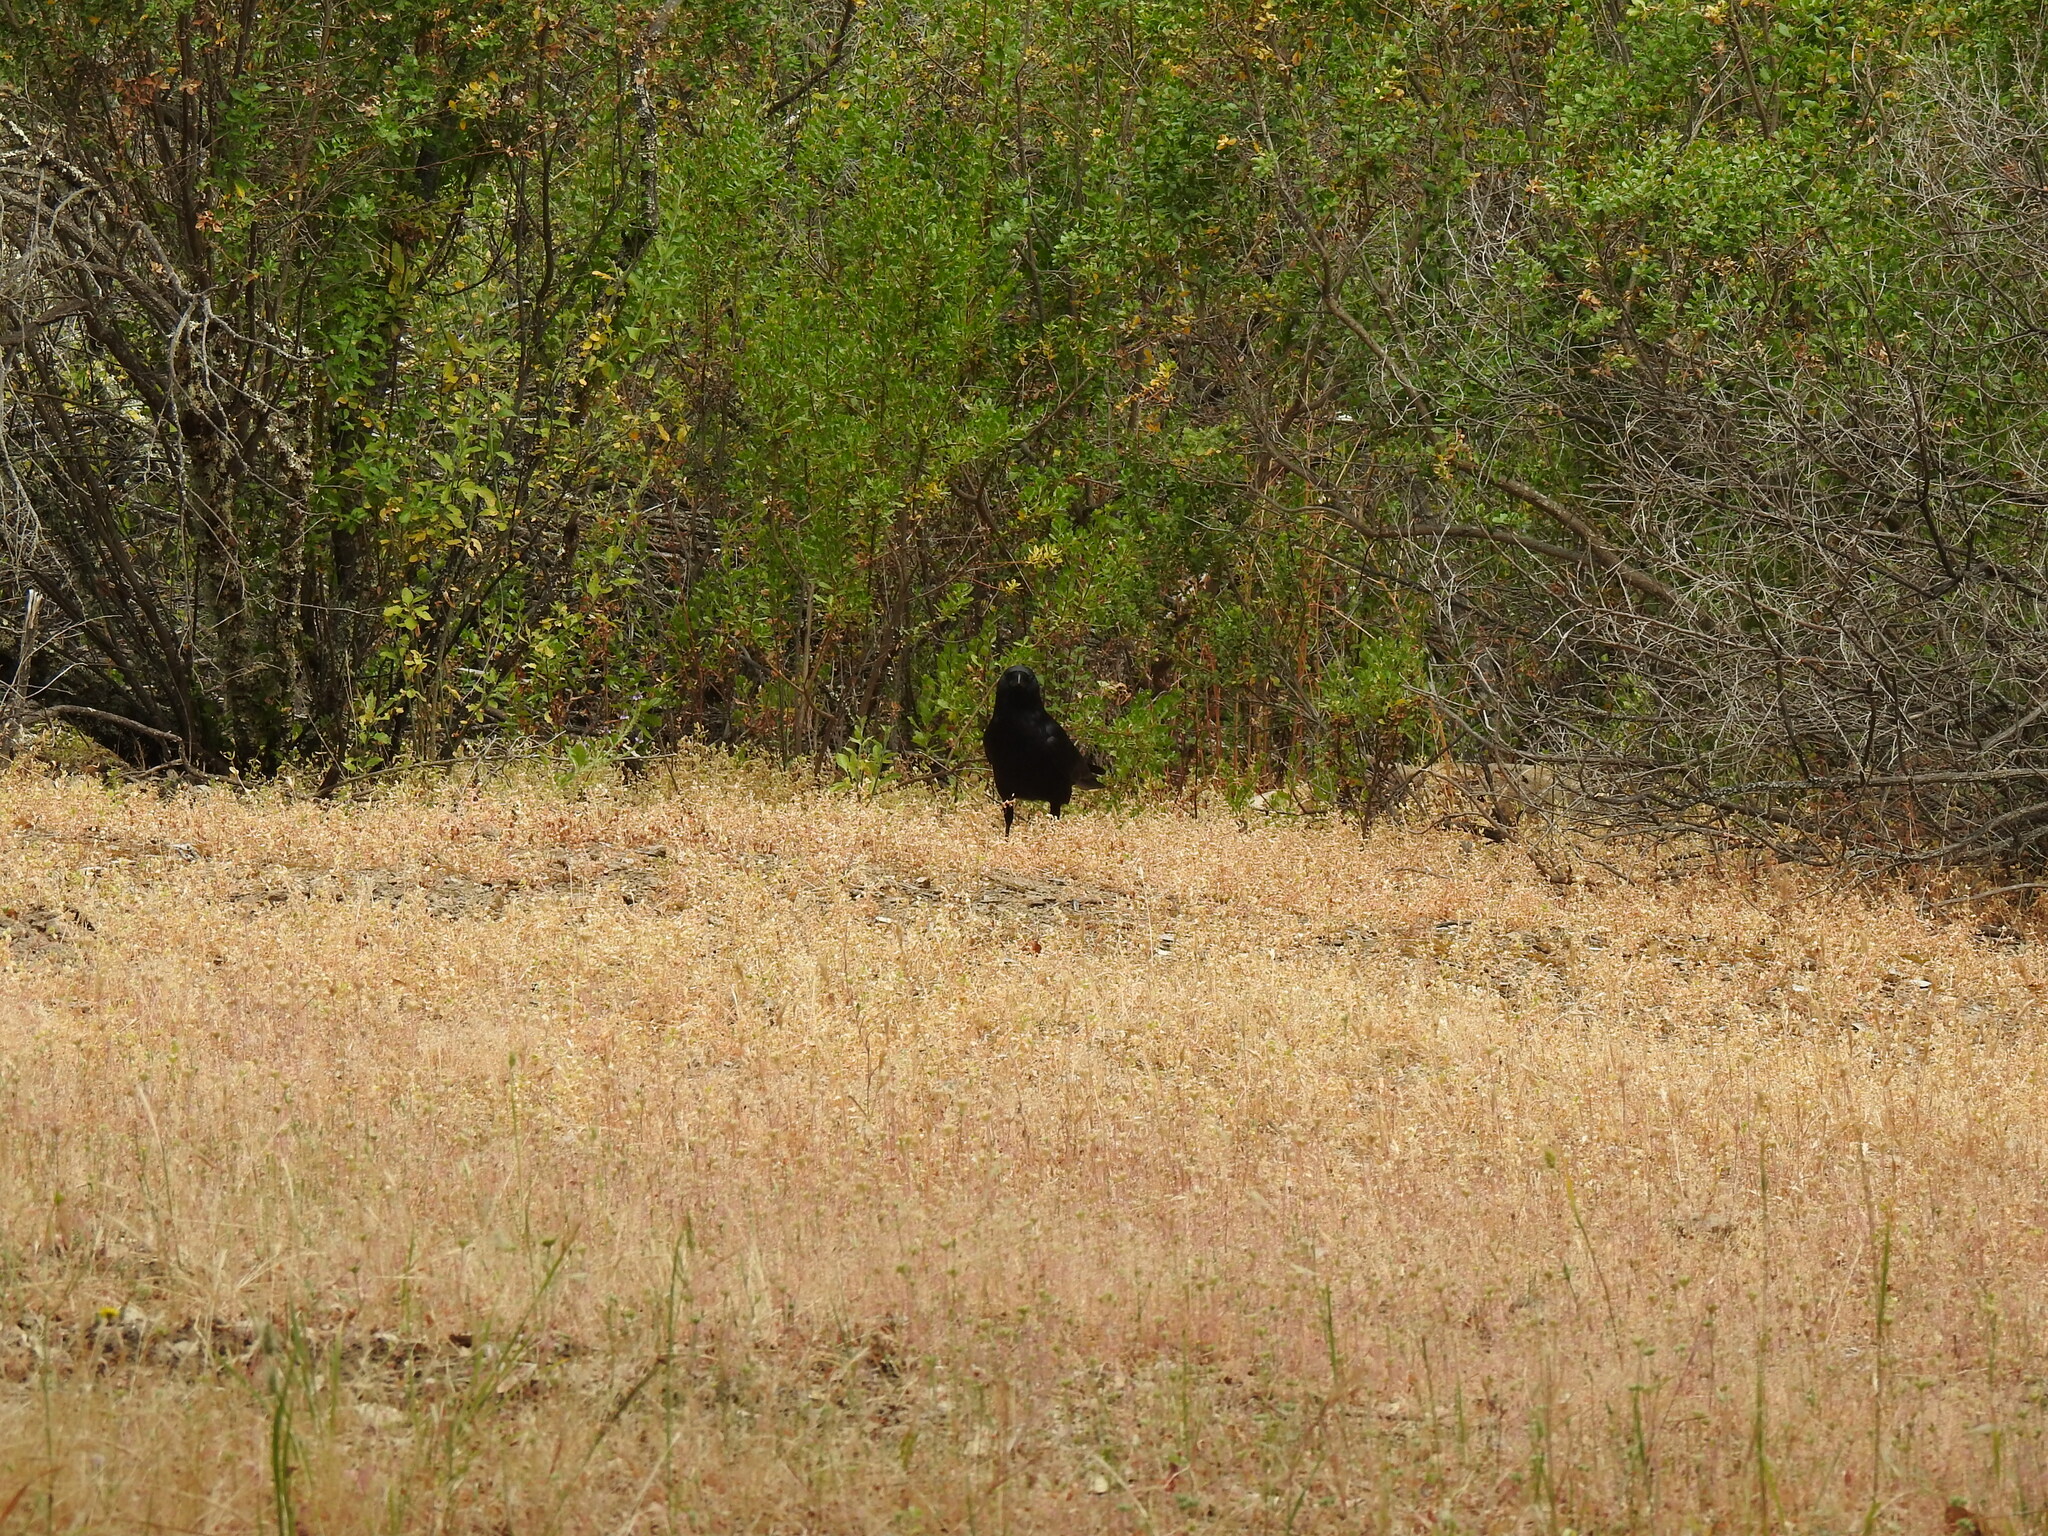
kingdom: Animalia
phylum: Chordata
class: Aves
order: Passeriformes
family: Corvidae
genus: Corvus
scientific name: Corvus brachyrhynchos
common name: American crow
